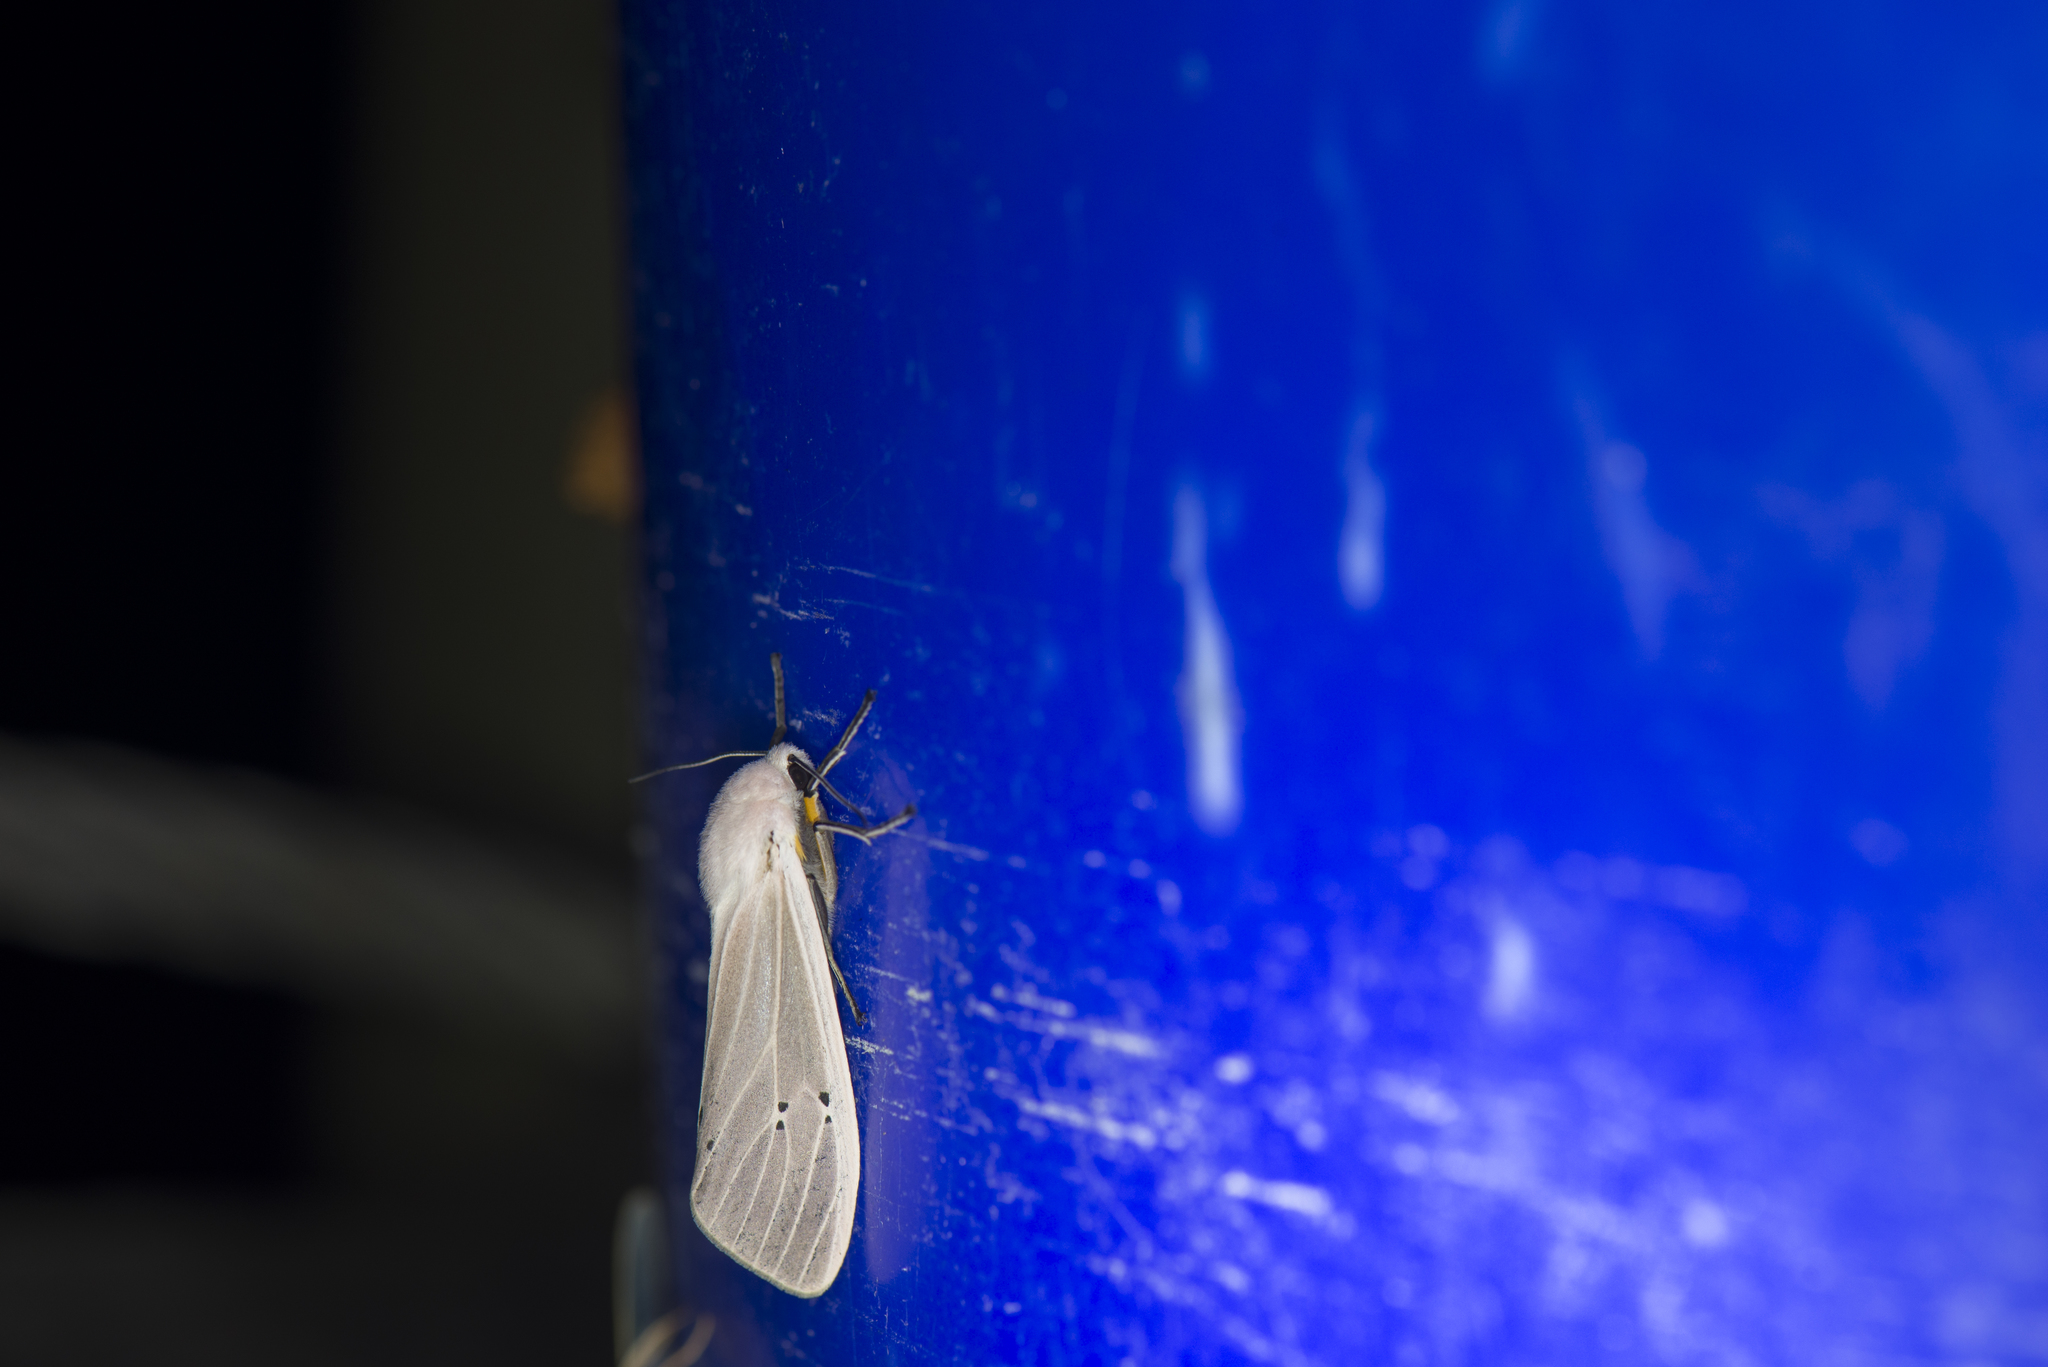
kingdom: Animalia
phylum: Arthropoda
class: Insecta
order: Lepidoptera
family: Erebidae
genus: Creatonotos
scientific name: Creatonotos transiens
